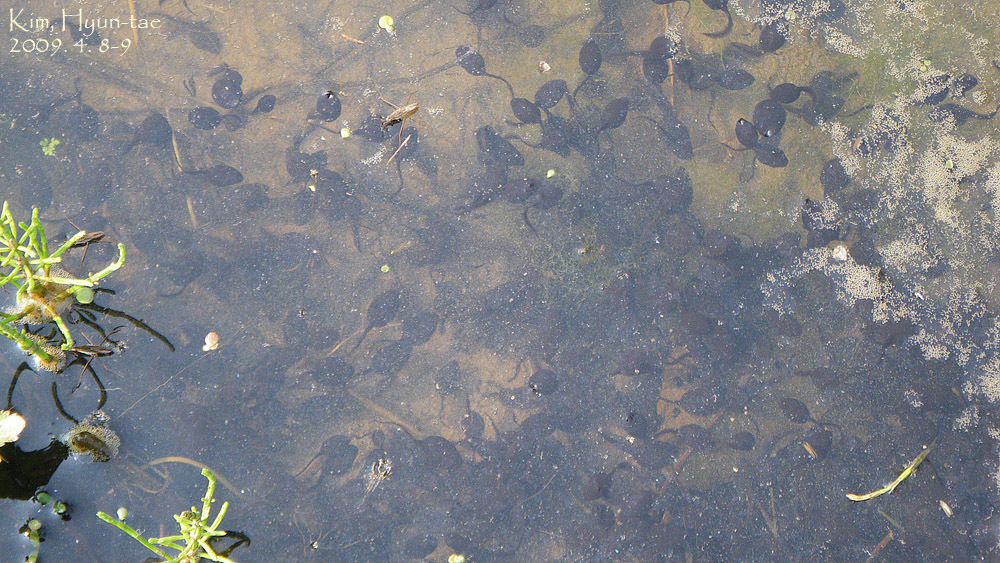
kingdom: Animalia
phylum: Chordata
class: Amphibia
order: Anura
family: Bufonidae
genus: Bufo
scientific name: Bufo gargarizans
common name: Asiatic toad
